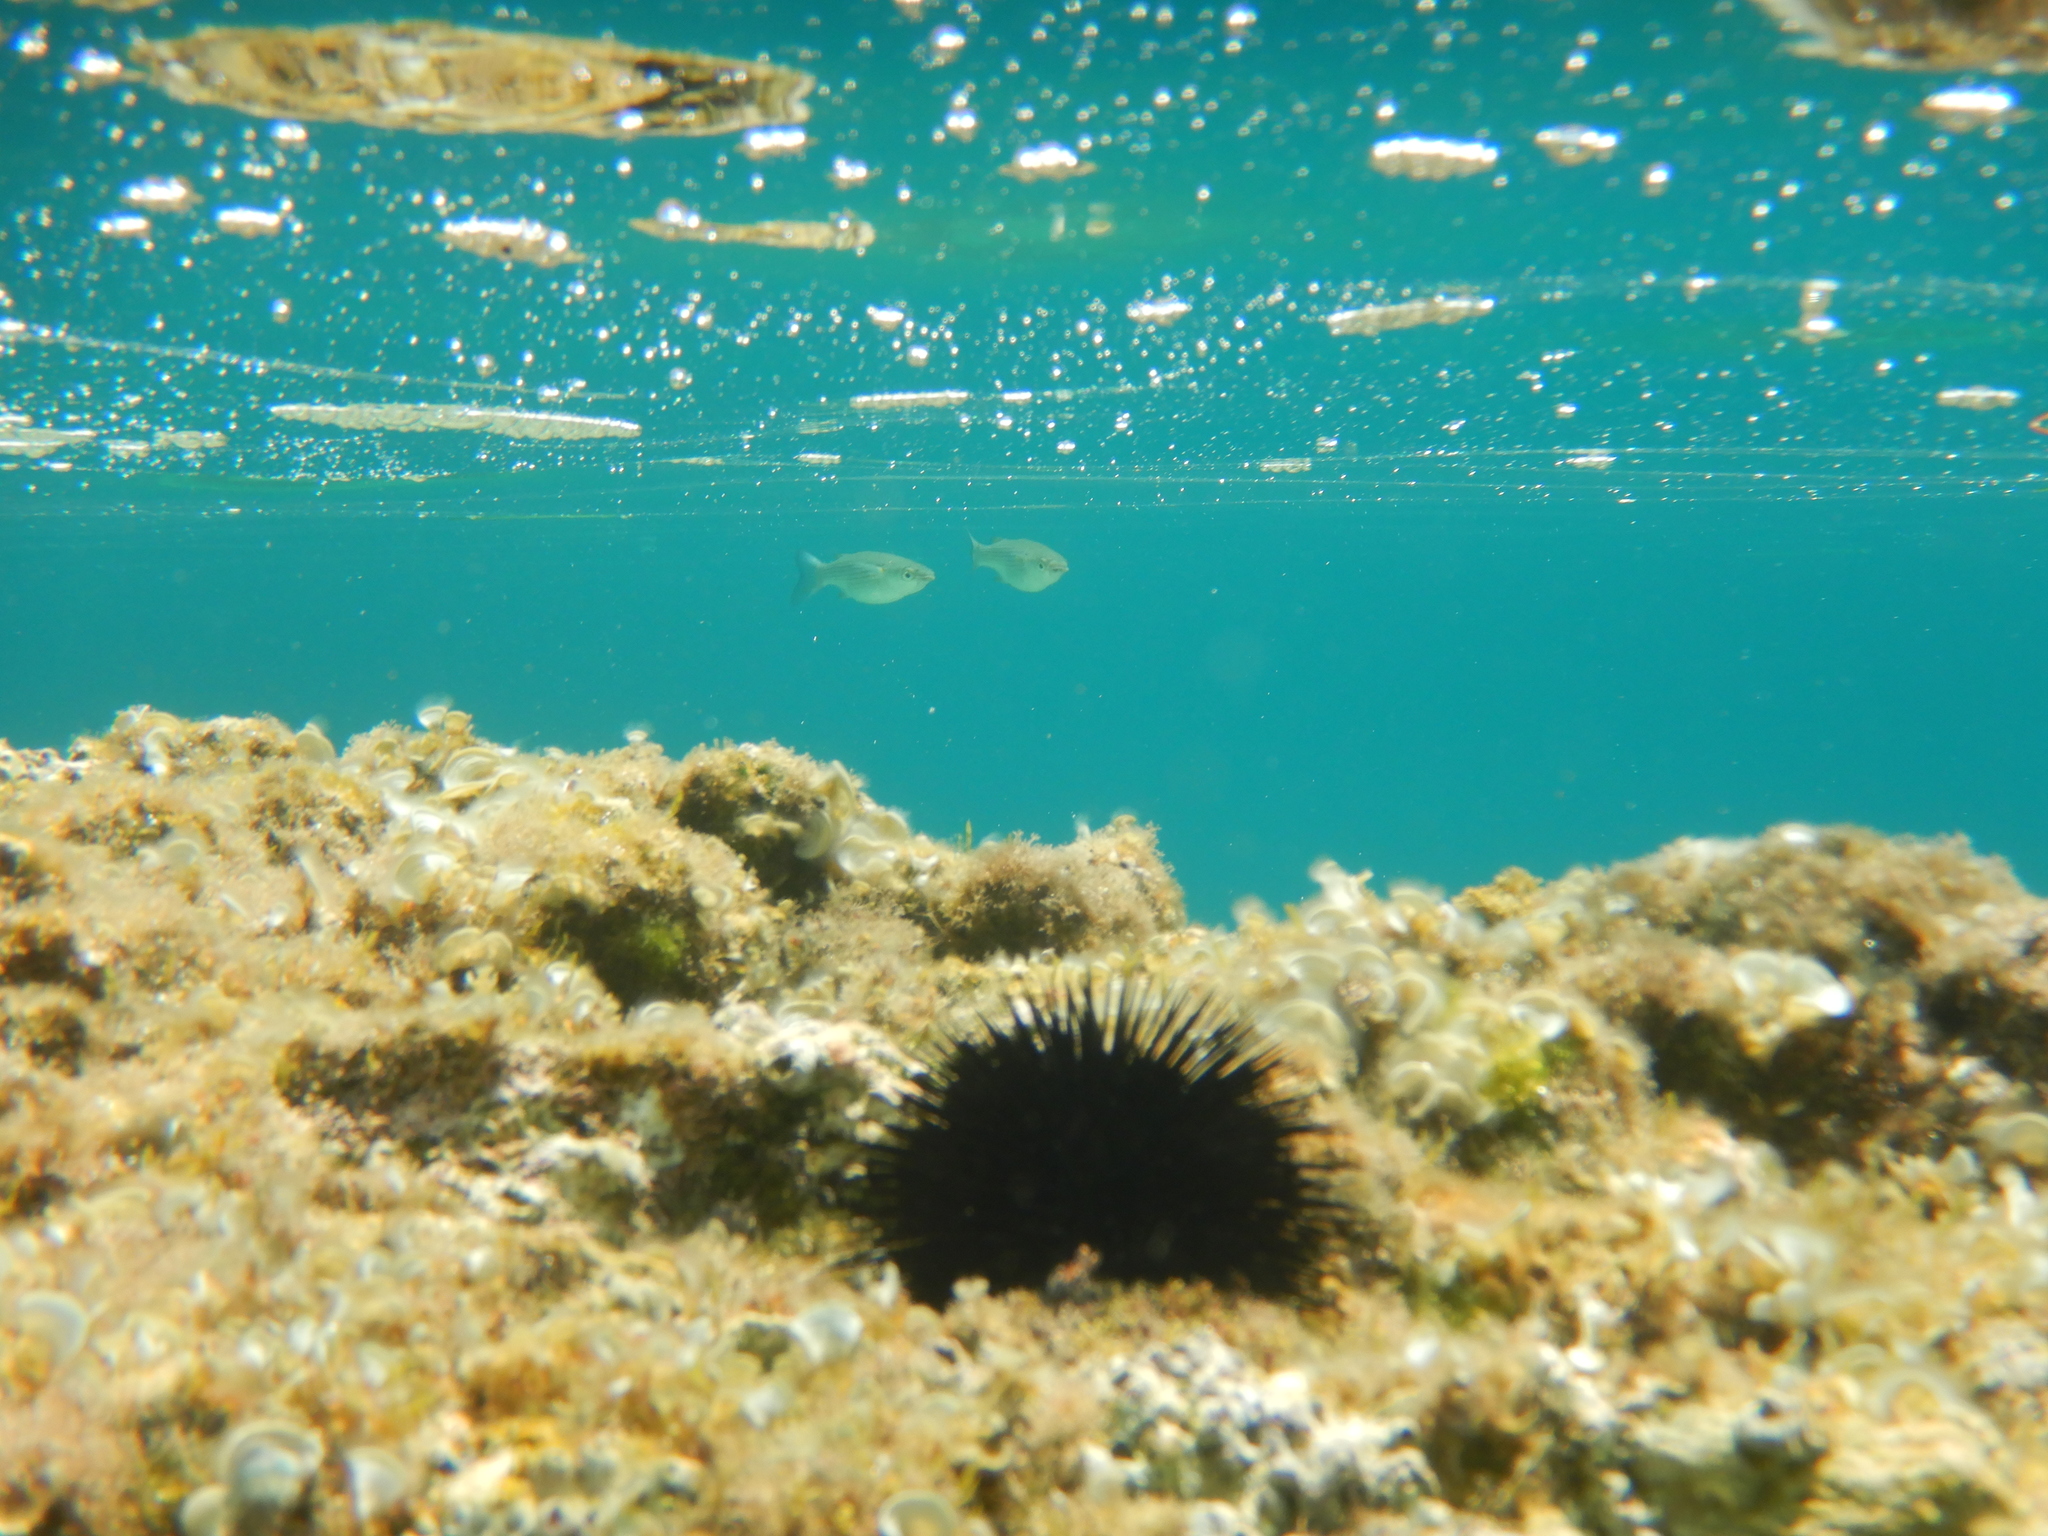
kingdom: Animalia
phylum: Chordata
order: Mugiliformes
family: Mugilidae
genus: Oedalechilus
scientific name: Oedalechilus labeo
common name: Boxlip mullet
